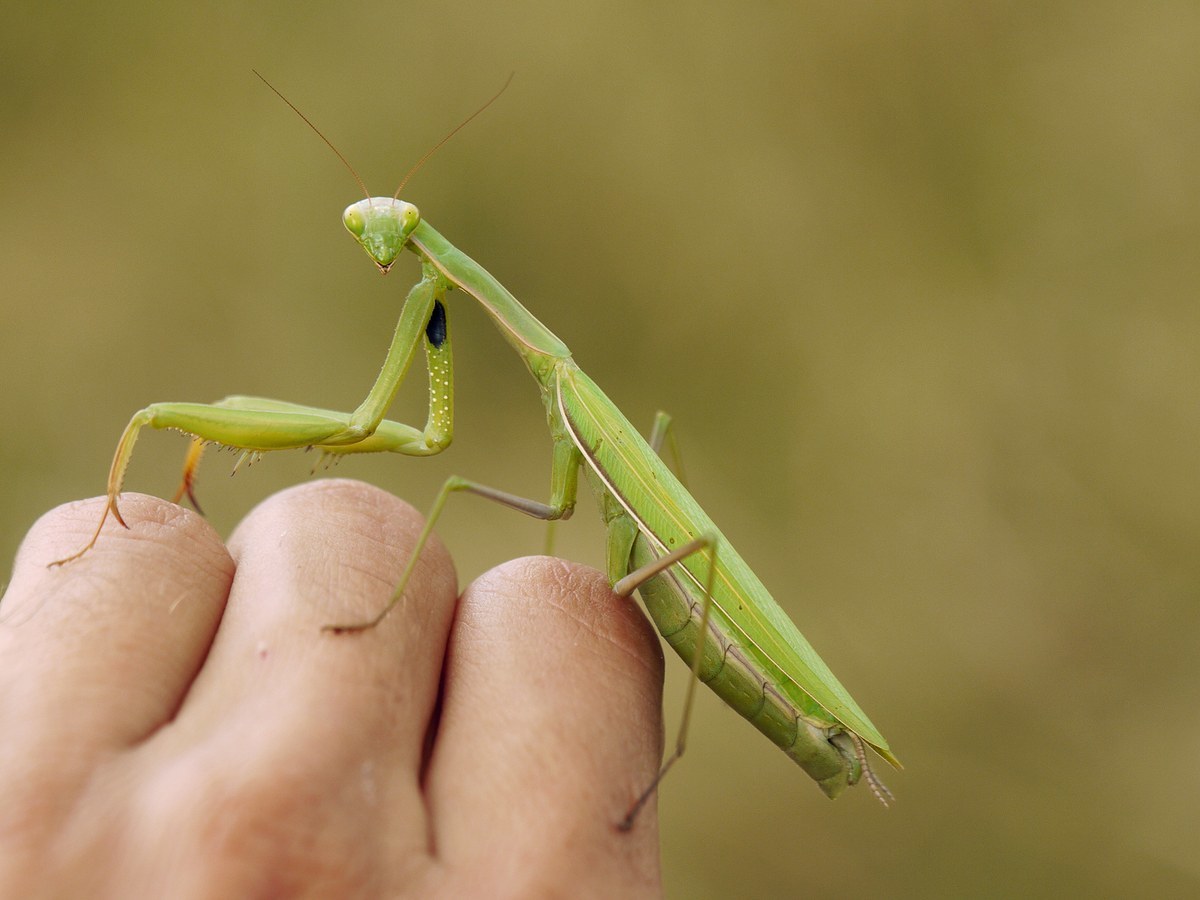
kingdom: Animalia
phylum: Arthropoda
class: Insecta
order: Mantodea
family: Mantidae
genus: Mantis
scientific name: Mantis religiosa
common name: Praying mantis
